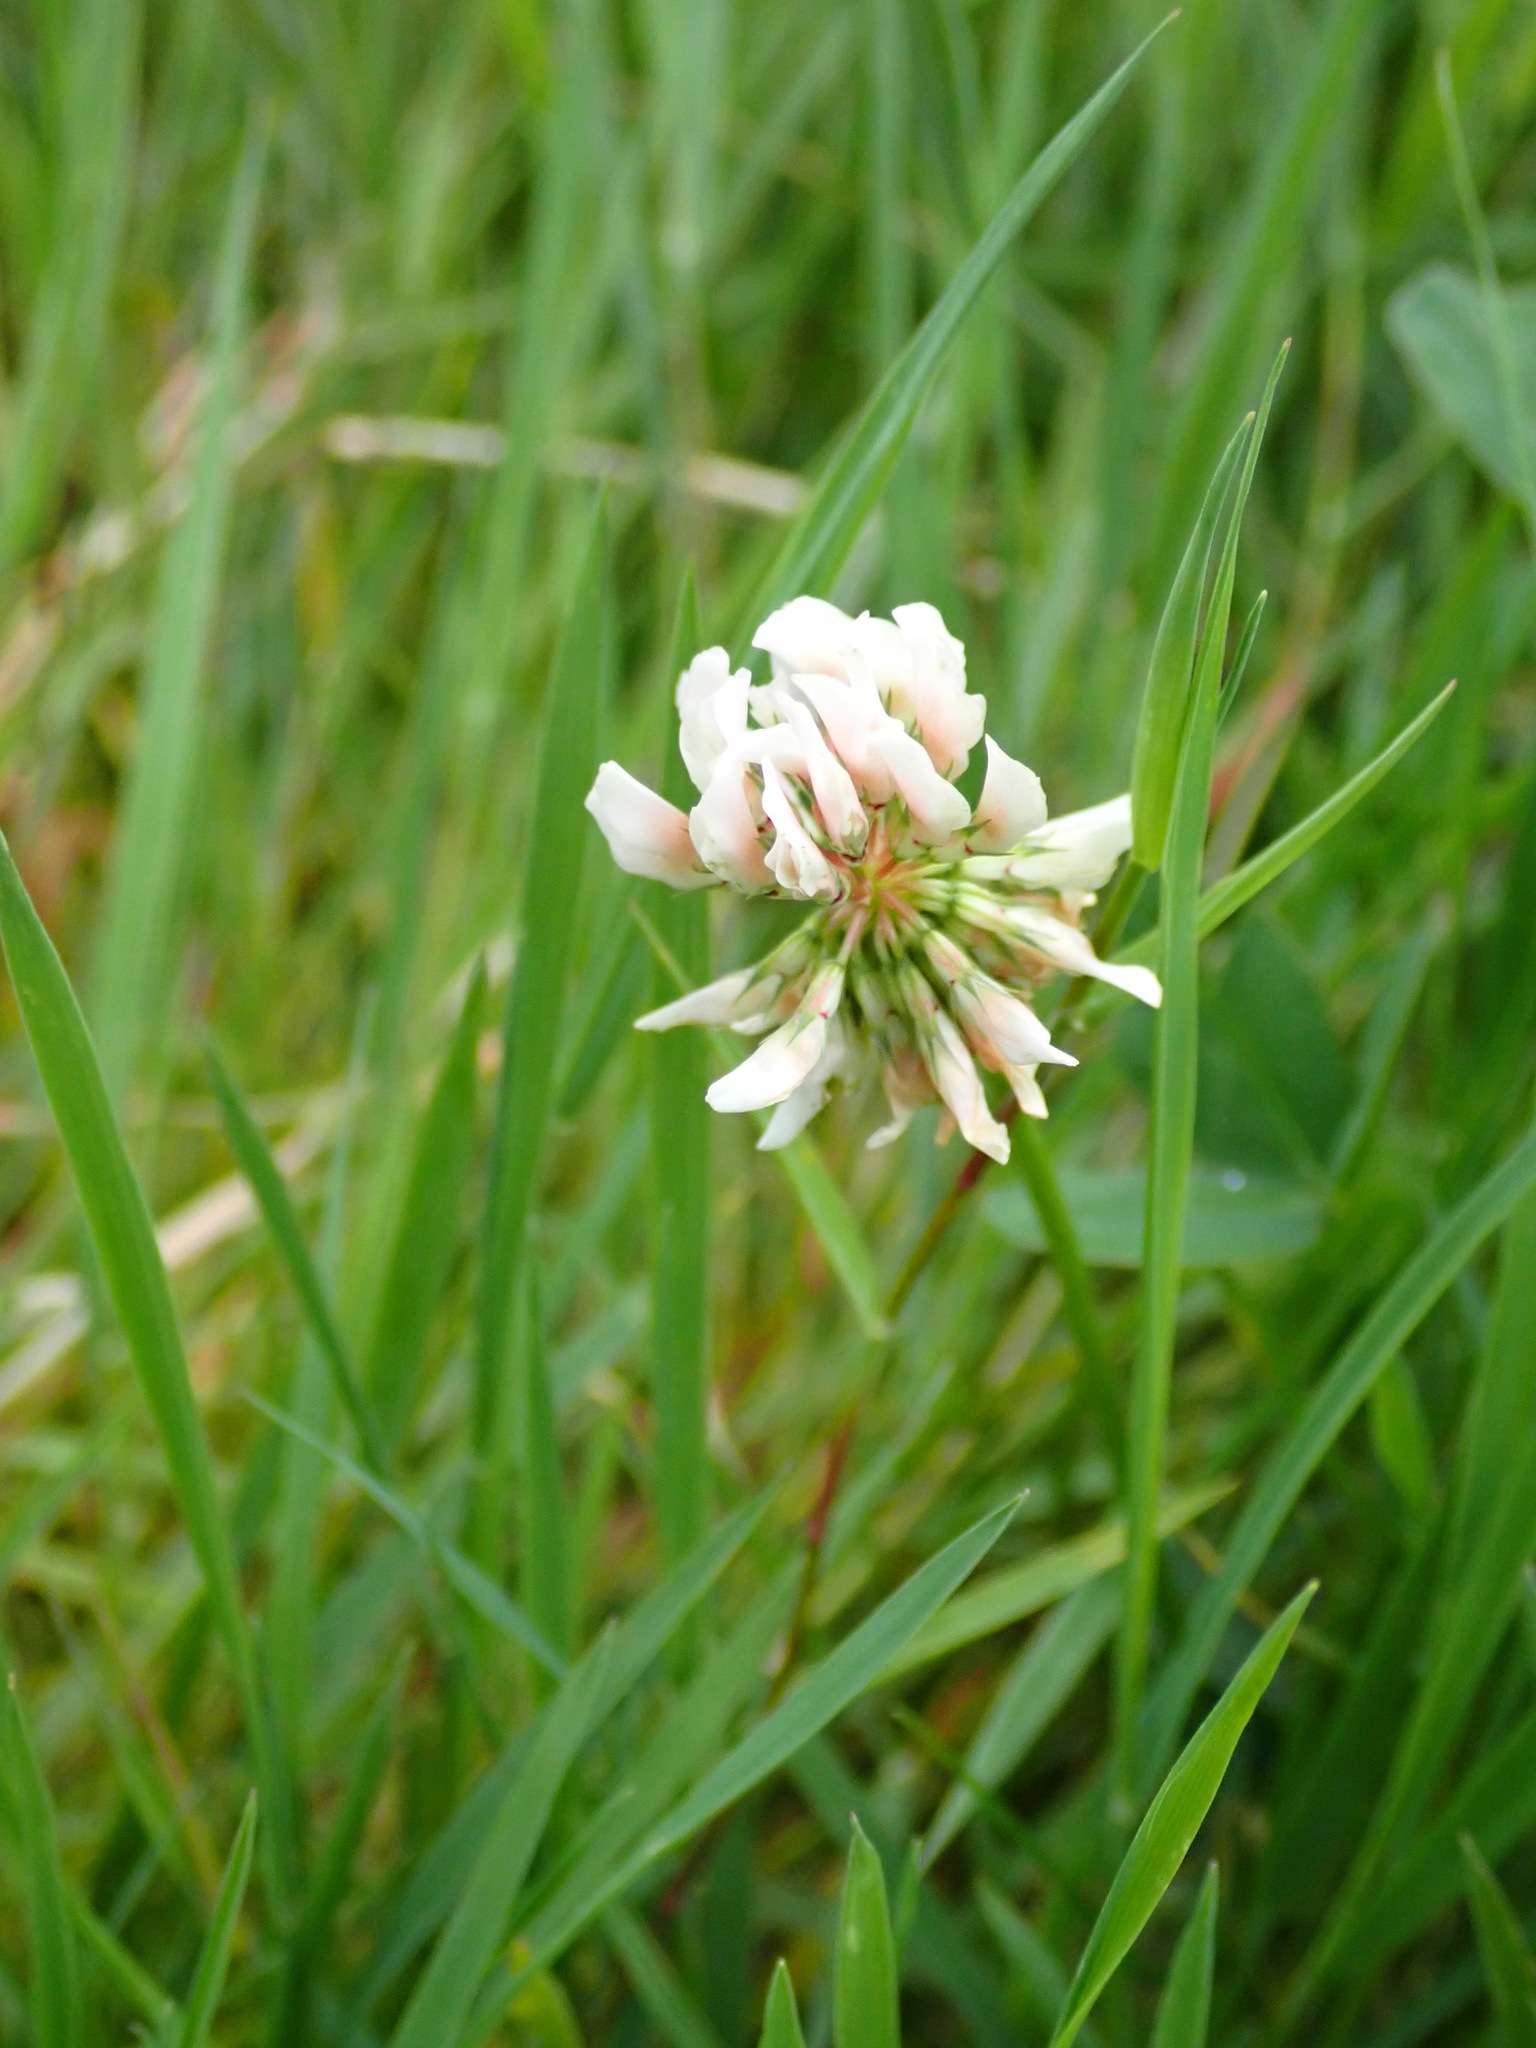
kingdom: Plantae
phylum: Tracheophyta
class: Magnoliopsida
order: Fabales
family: Fabaceae
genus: Trifolium
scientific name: Trifolium repens
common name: White clover
